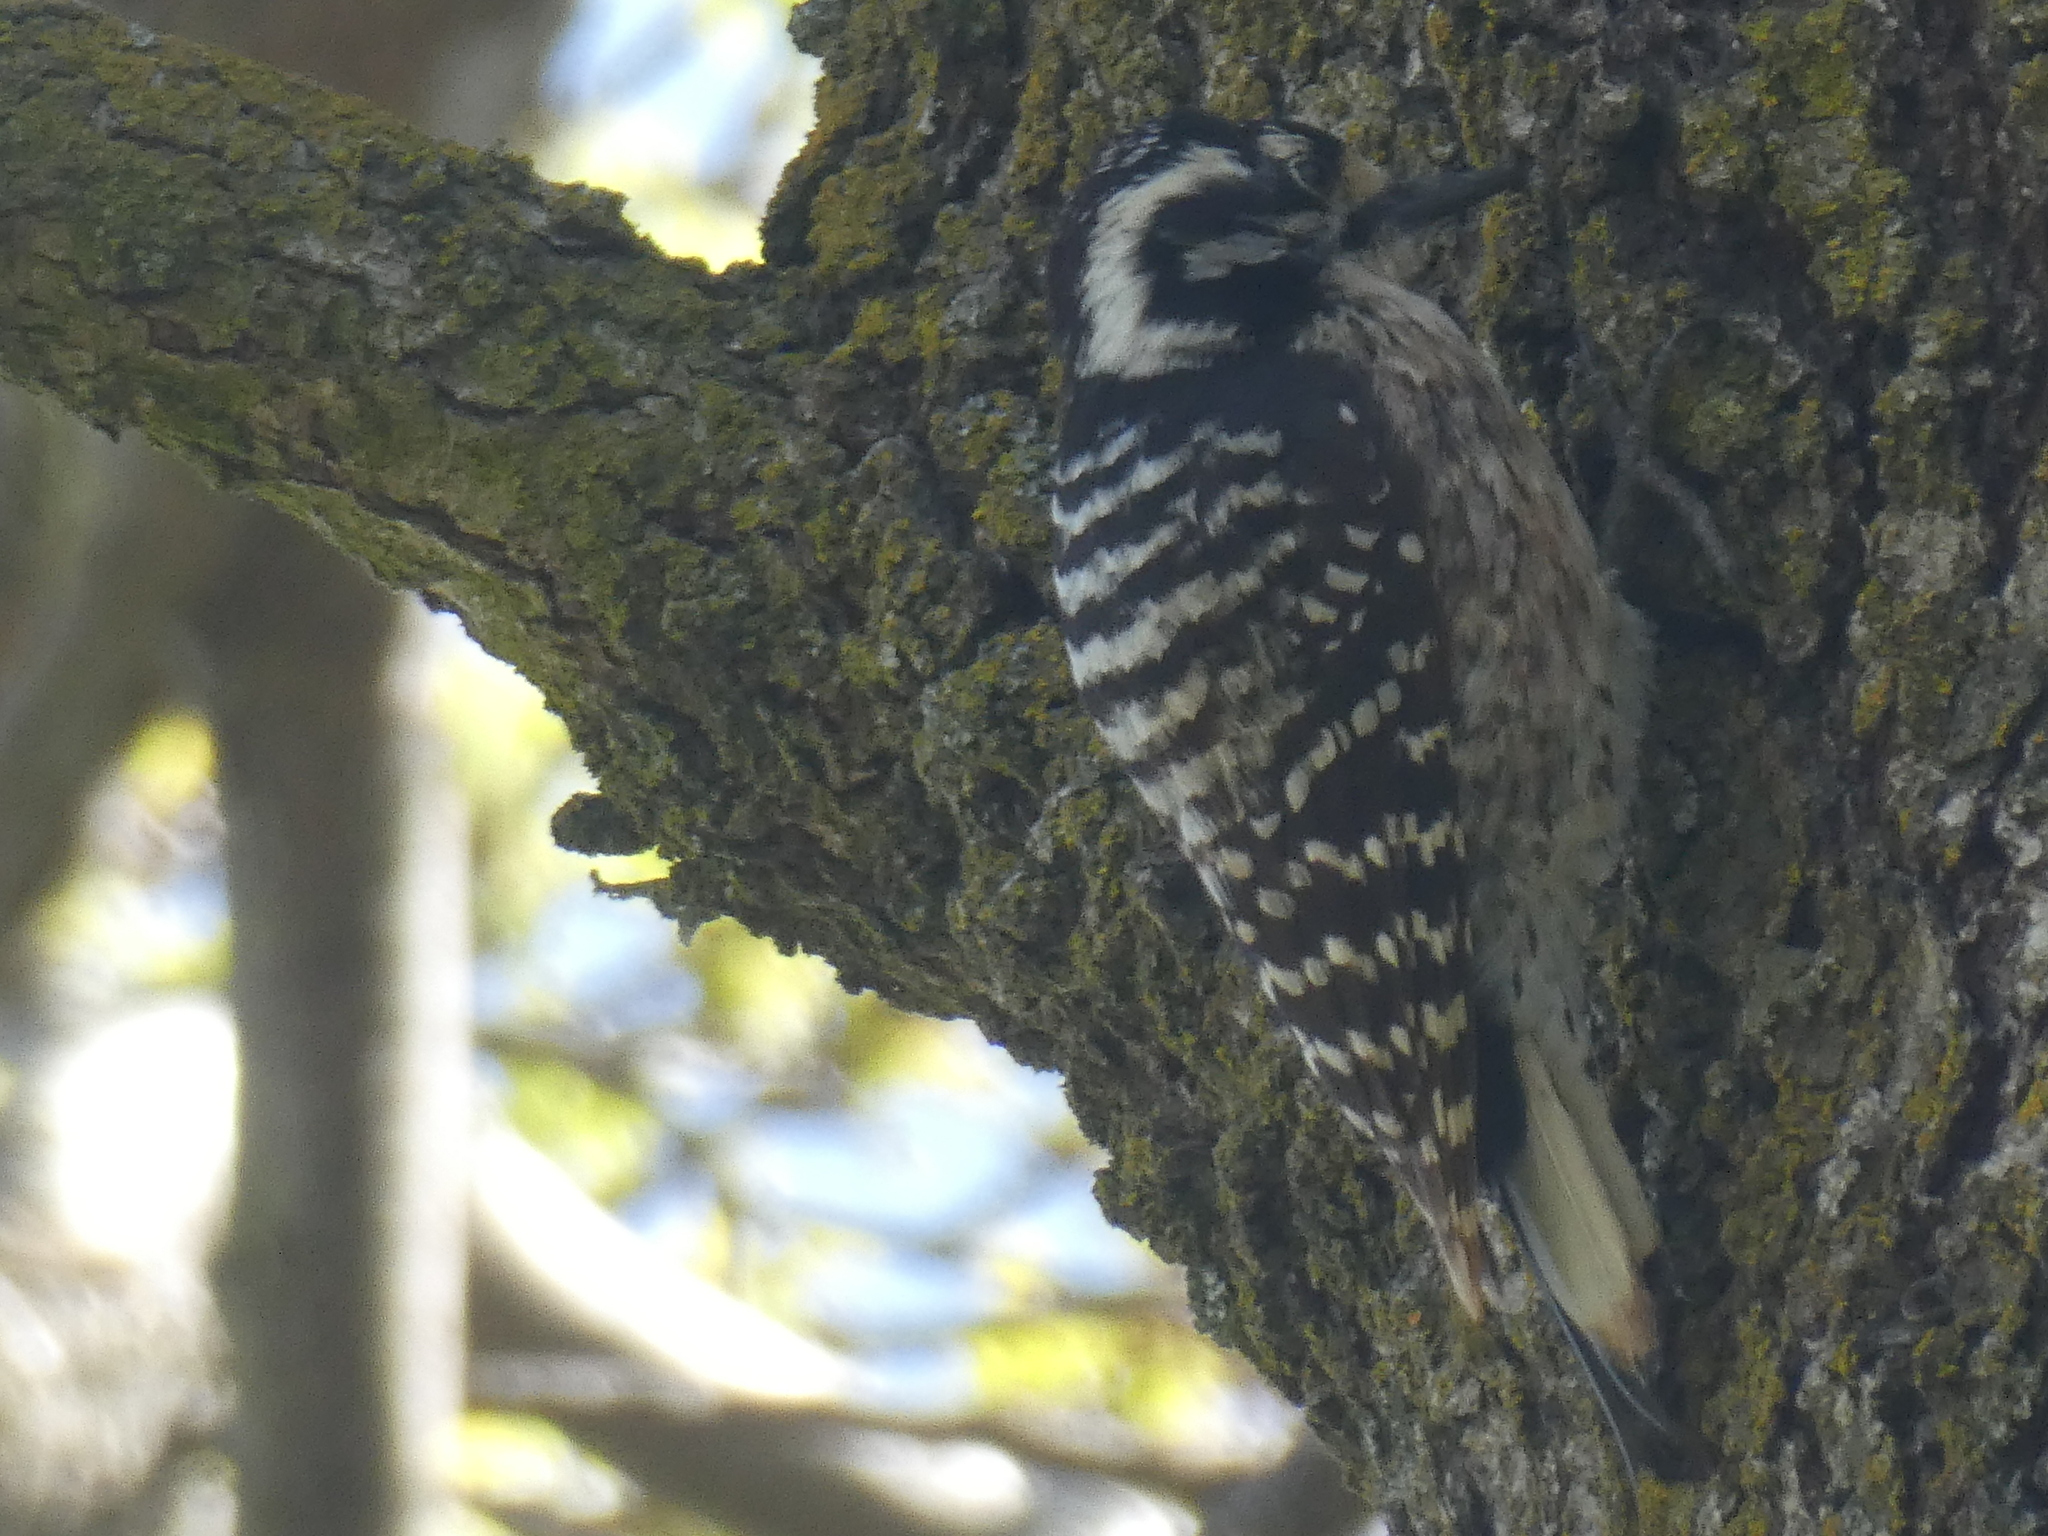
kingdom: Animalia
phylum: Chordata
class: Aves
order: Piciformes
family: Picidae
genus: Dryobates
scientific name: Dryobates nuttallii
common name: Nuttall's woodpecker
